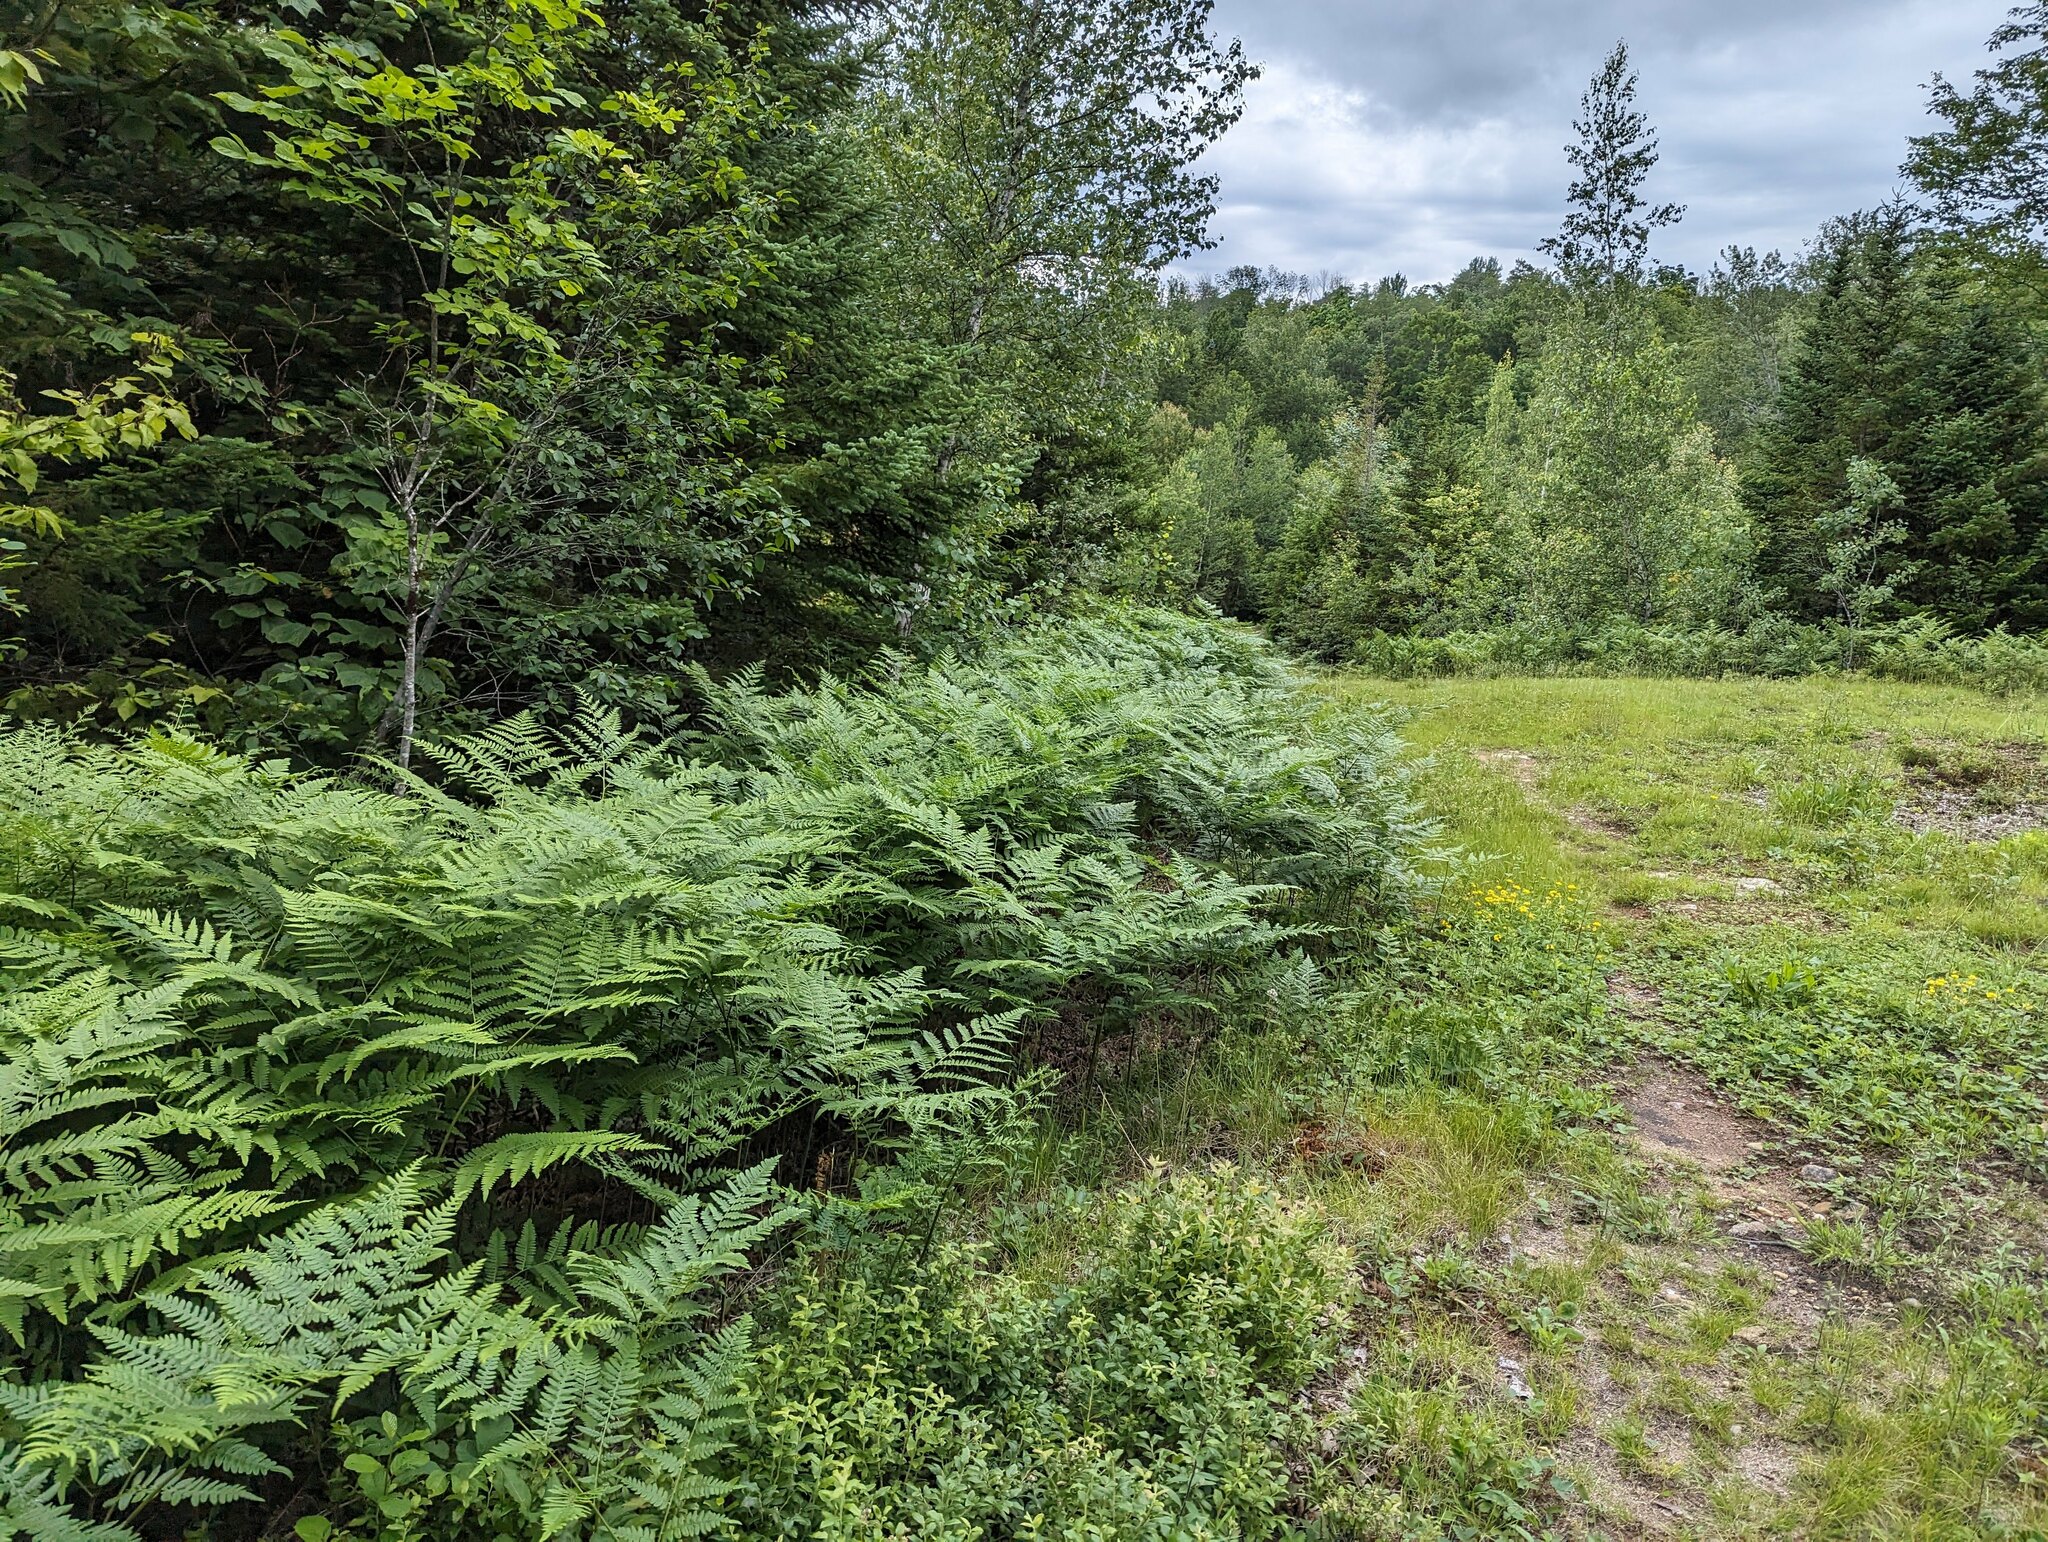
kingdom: Plantae
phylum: Tracheophyta
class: Polypodiopsida
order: Polypodiales
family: Dennstaedtiaceae
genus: Pteridium
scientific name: Pteridium aquilinum
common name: Bracken
